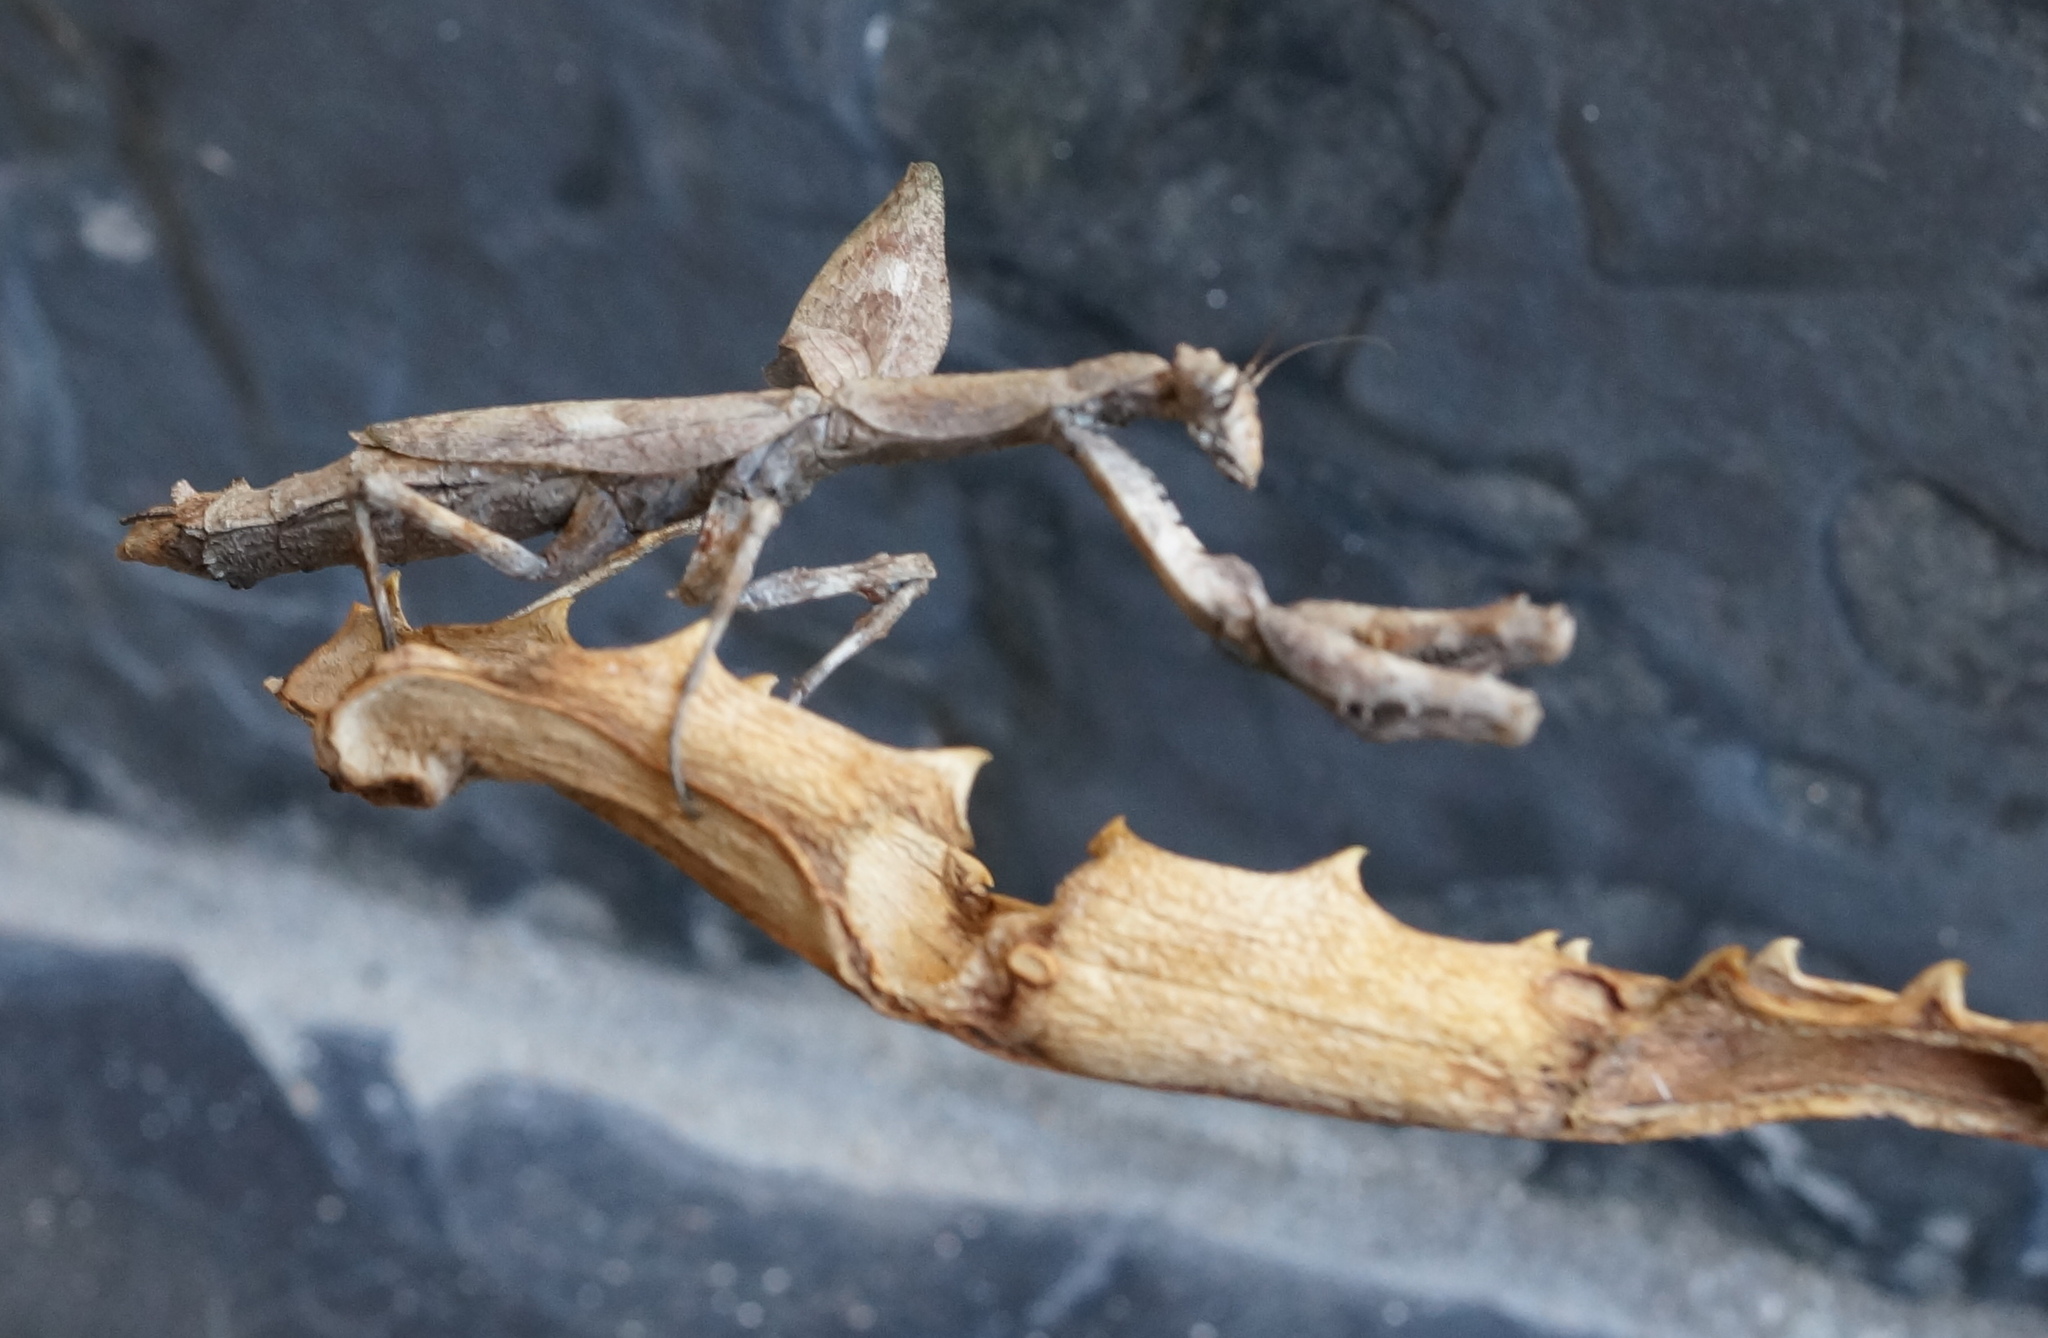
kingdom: Animalia
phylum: Arthropoda
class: Insecta
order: Mantodea
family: Deroplatyidae
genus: Popa
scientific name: Popa spurca
